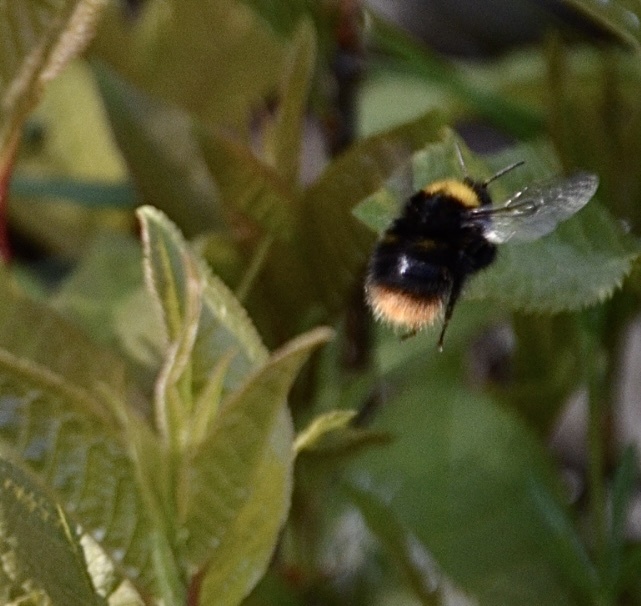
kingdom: Animalia
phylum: Arthropoda
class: Insecta
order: Hymenoptera
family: Apidae
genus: Bombus
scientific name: Bombus pratorum
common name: Early humble-bee
